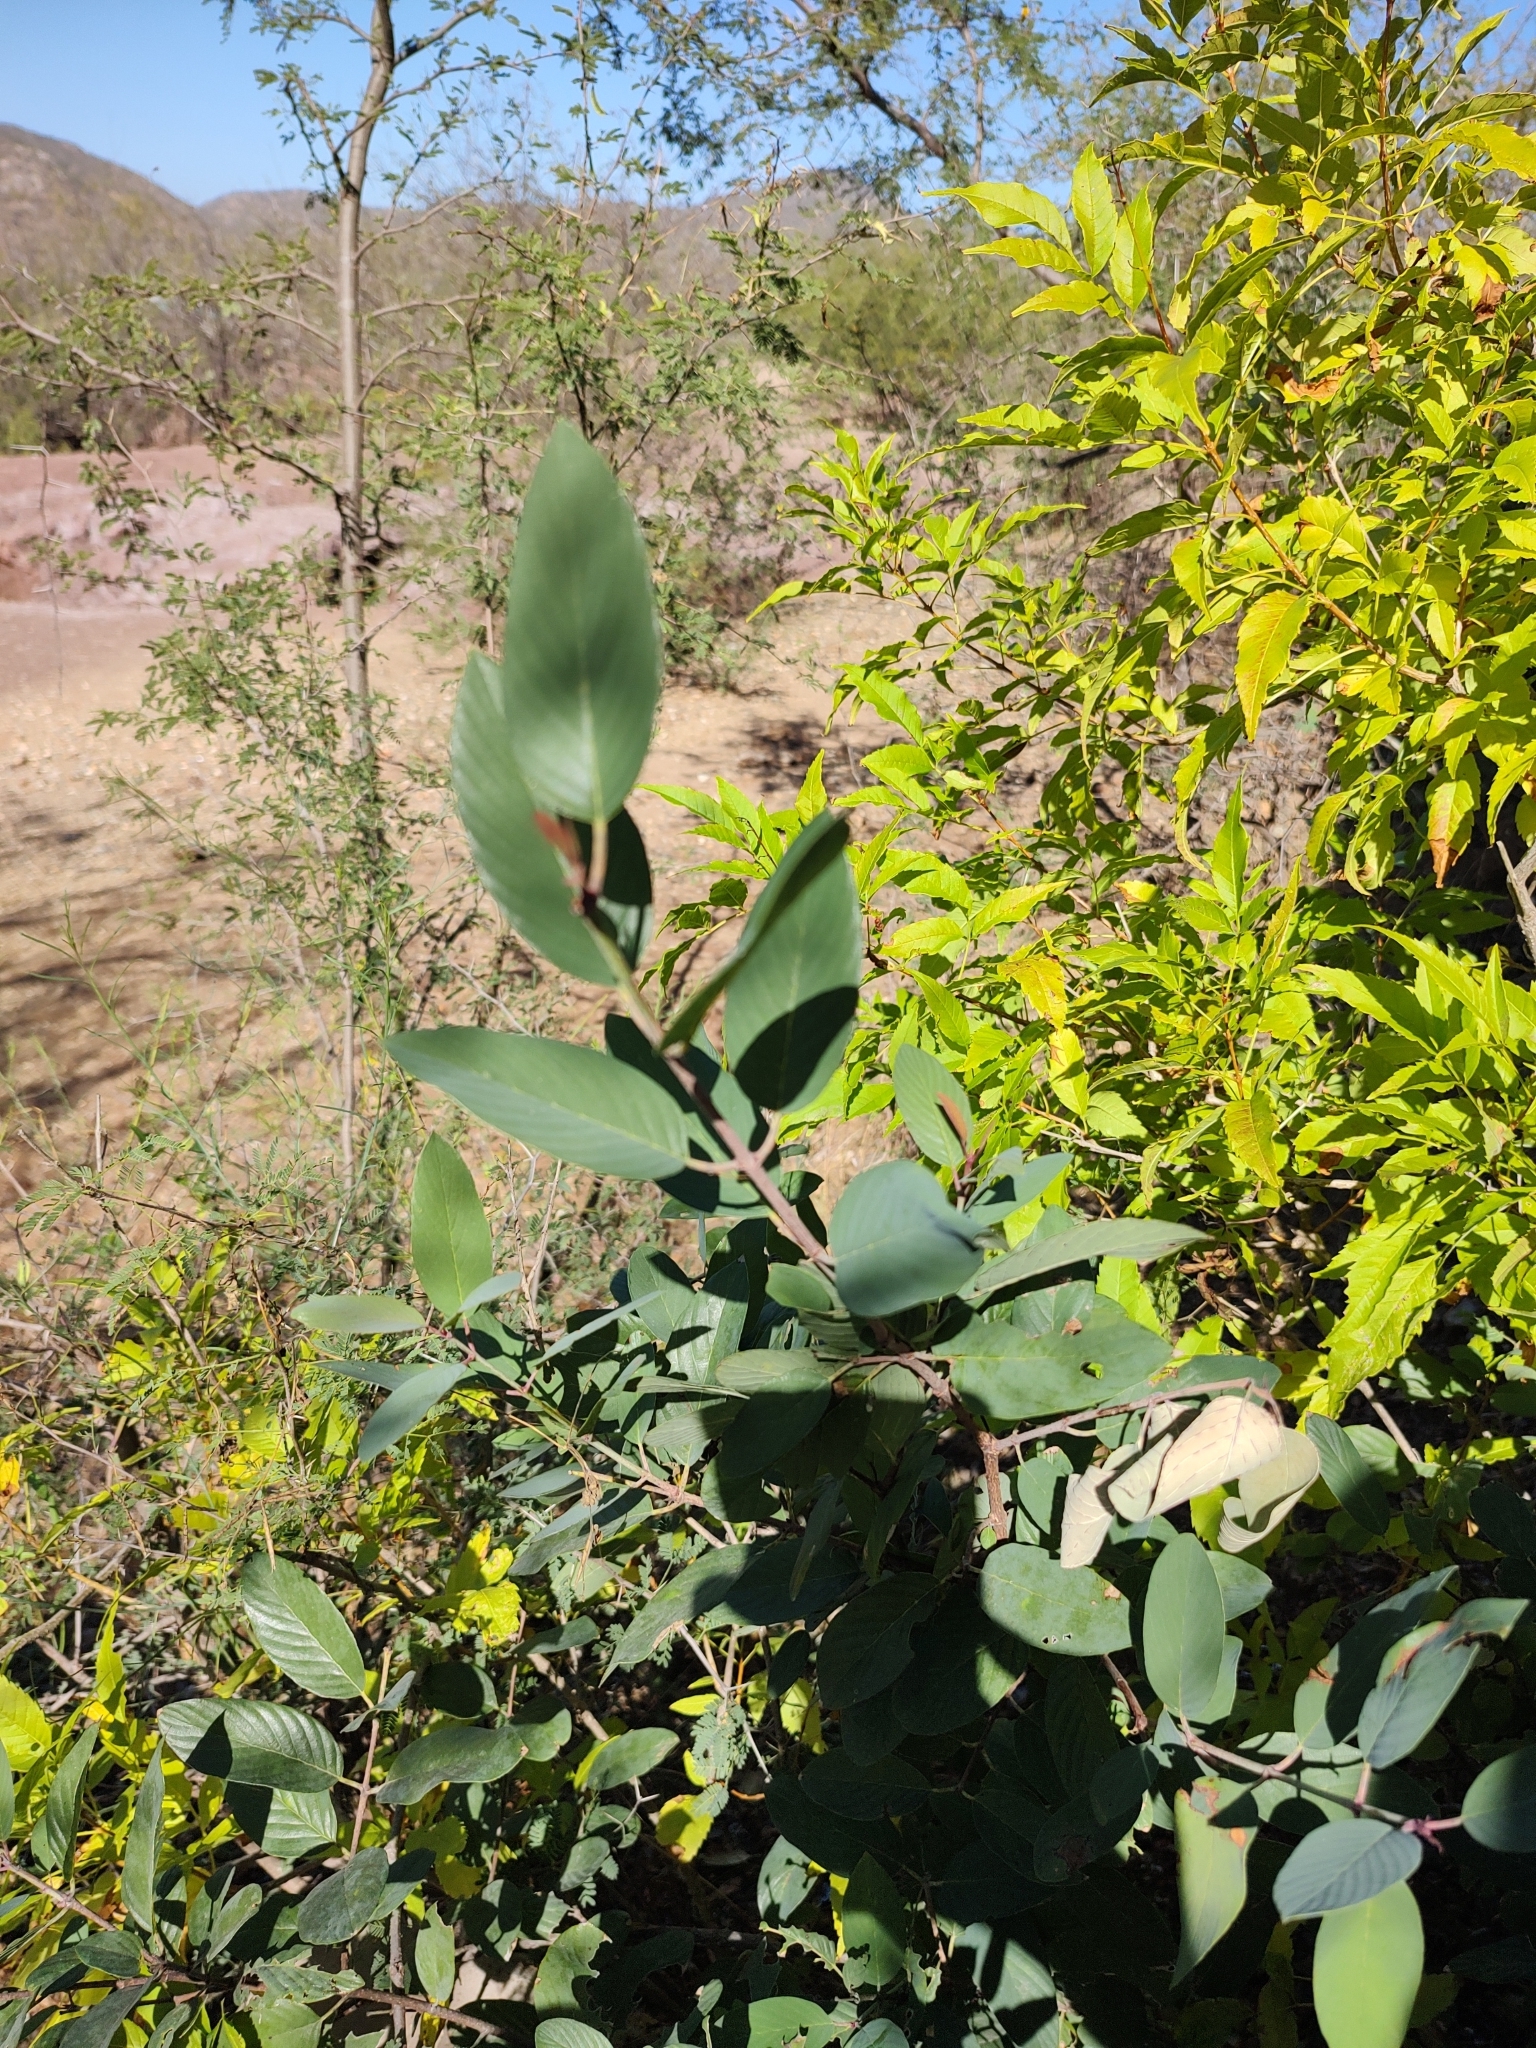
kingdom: Plantae
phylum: Tracheophyta
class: Magnoliopsida
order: Rosales
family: Rhamnaceae
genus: Karwinskia
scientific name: Karwinskia humboldtiana
